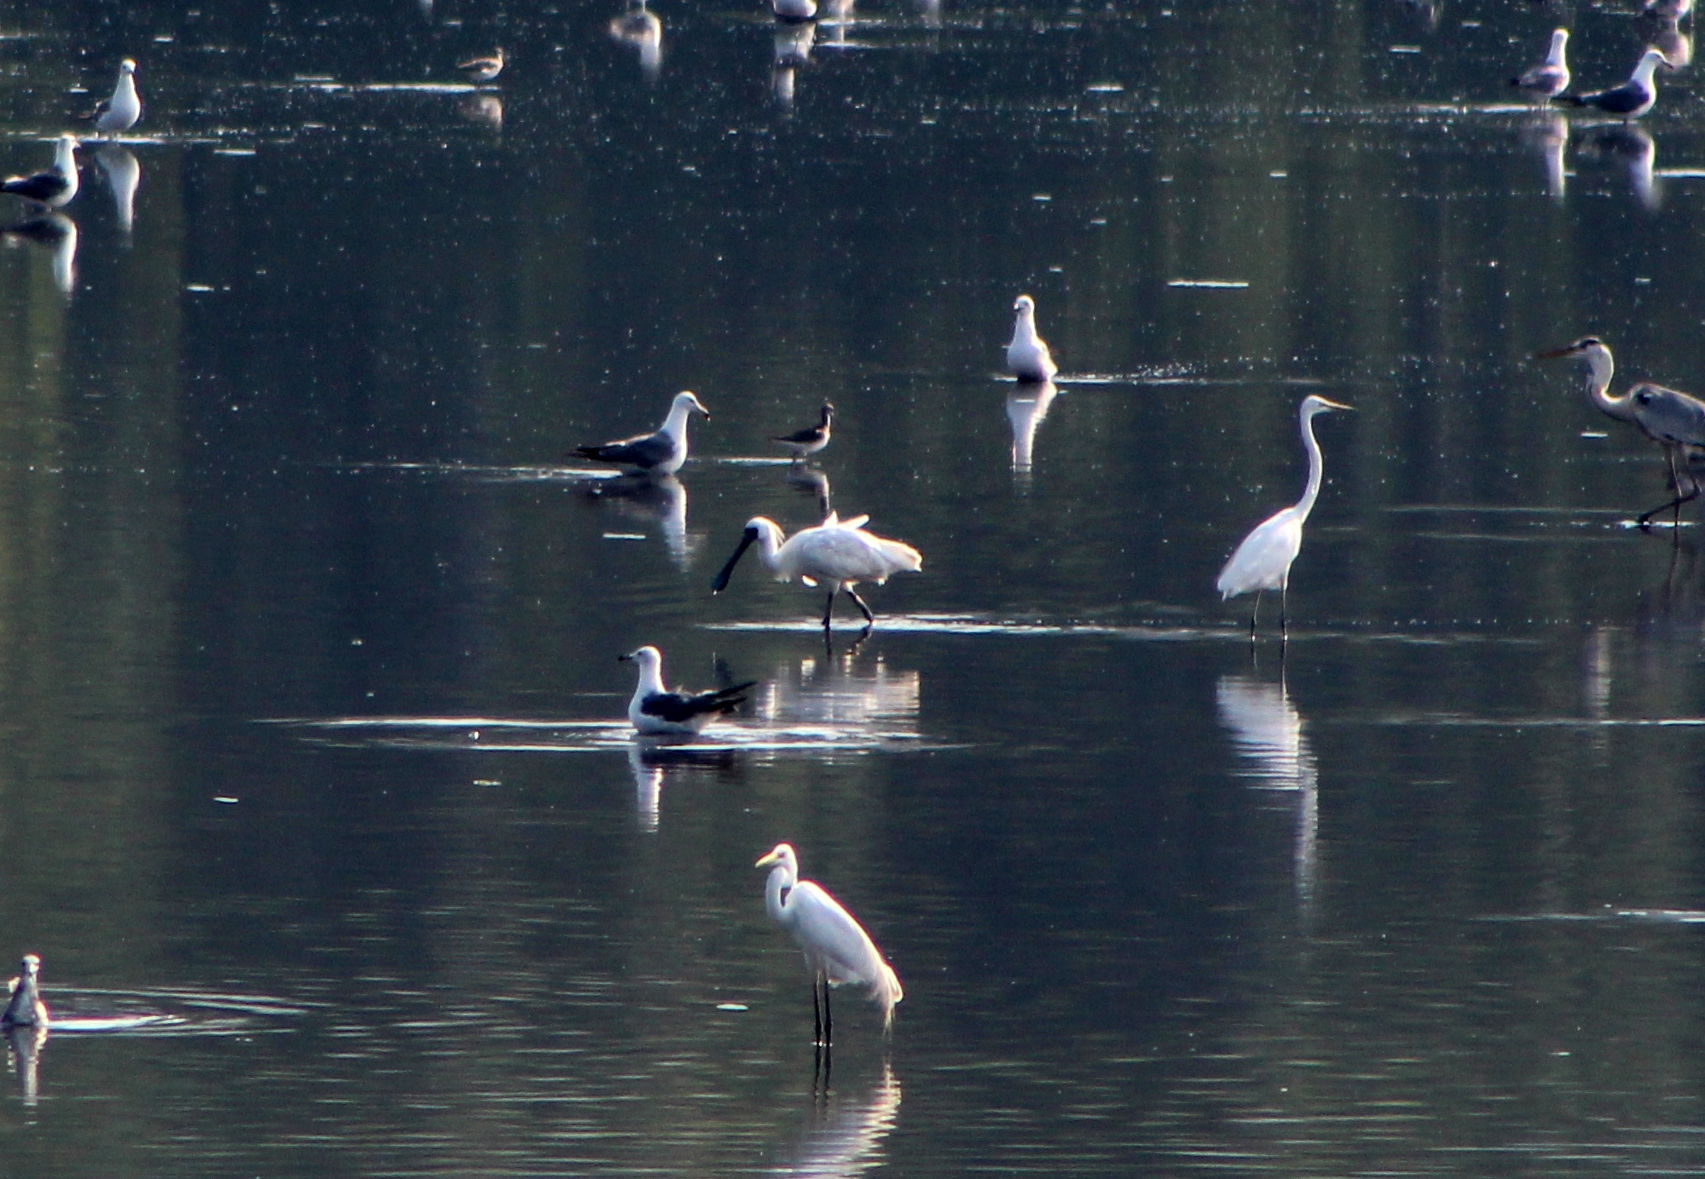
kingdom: Animalia
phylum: Chordata
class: Aves
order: Pelecaniformes
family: Threskiornithidae
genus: Platalea
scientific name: Platalea minor
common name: Black-faced spoonbill
